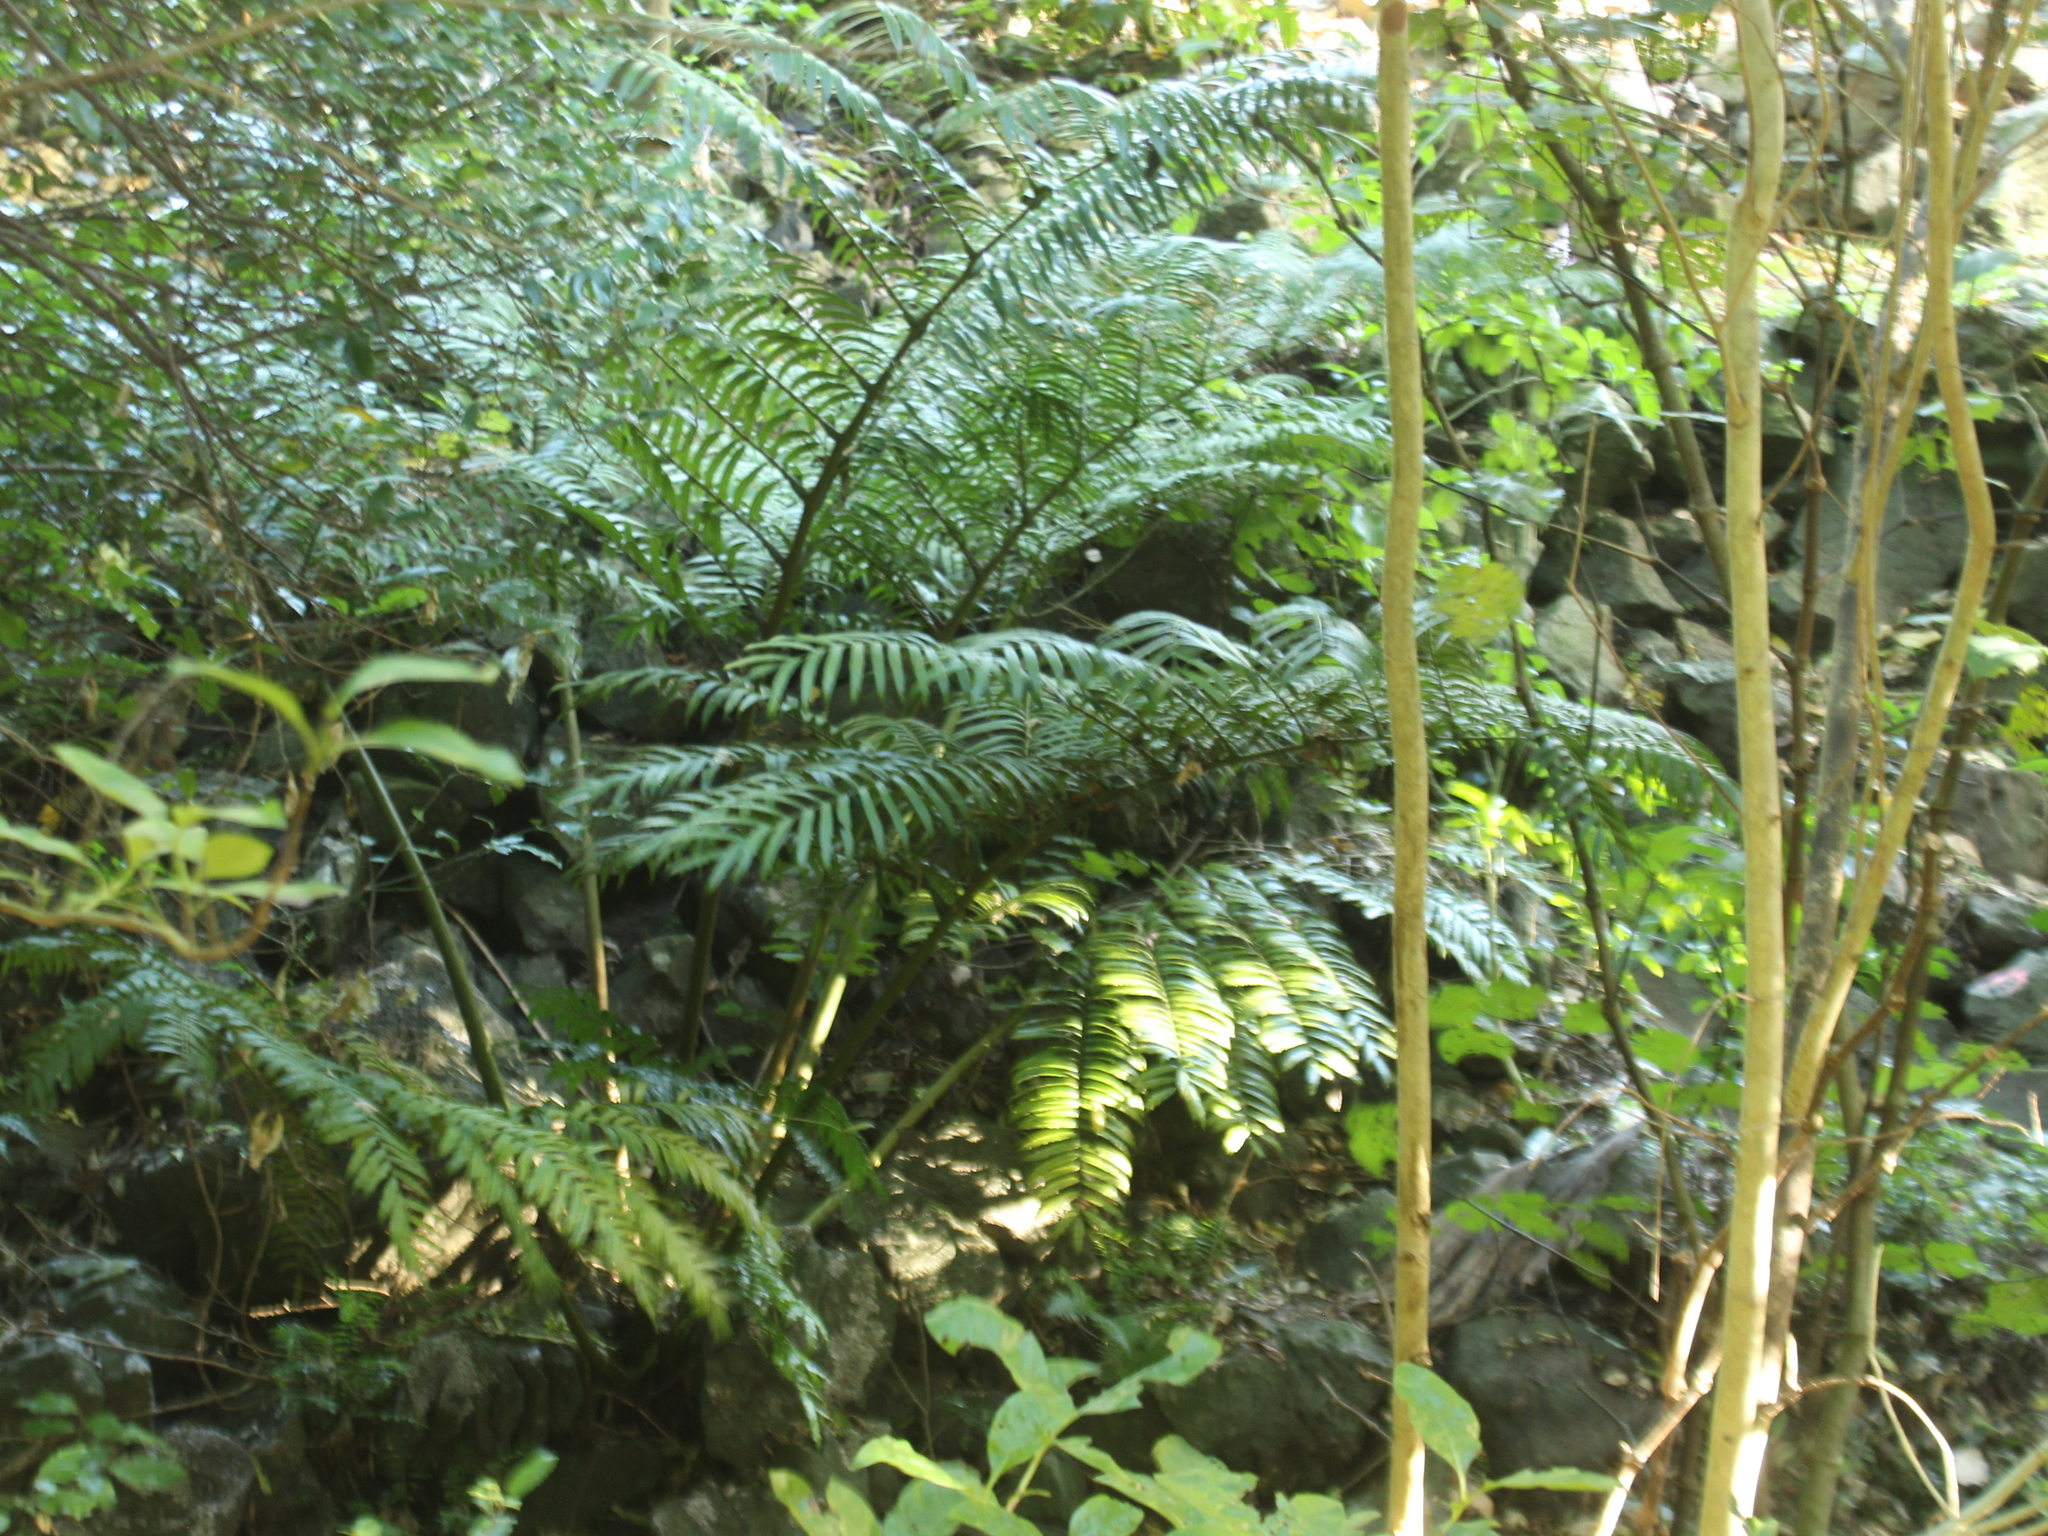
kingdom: Plantae
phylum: Tracheophyta
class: Polypodiopsida
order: Marattiales
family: Marattiaceae
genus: Ptisana
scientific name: Ptisana salicina
